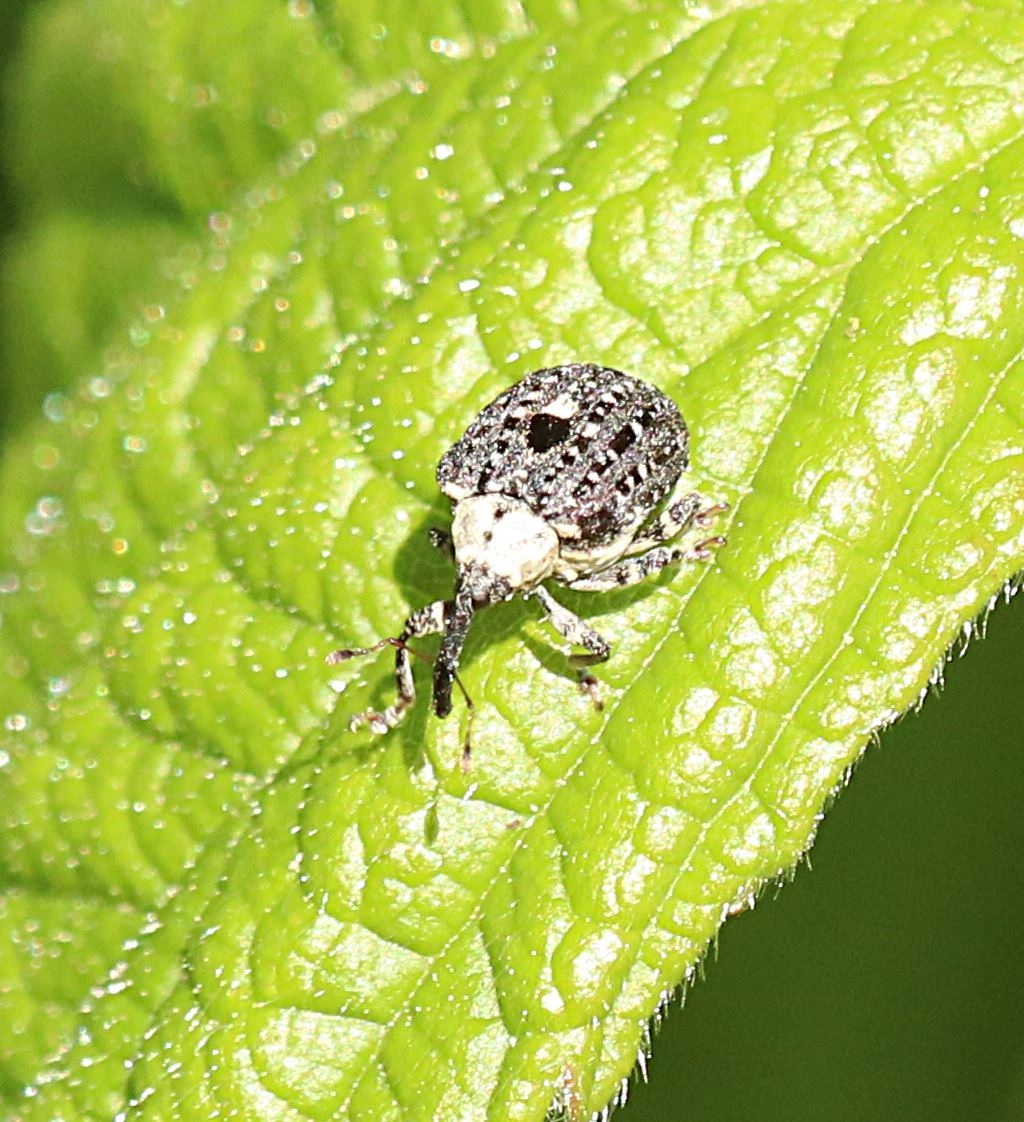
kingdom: Animalia
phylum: Arthropoda
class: Insecta
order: Coleoptera
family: Curculionidae
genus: Cionus
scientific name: Cionus scrophulariae
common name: Common figwort weevil
